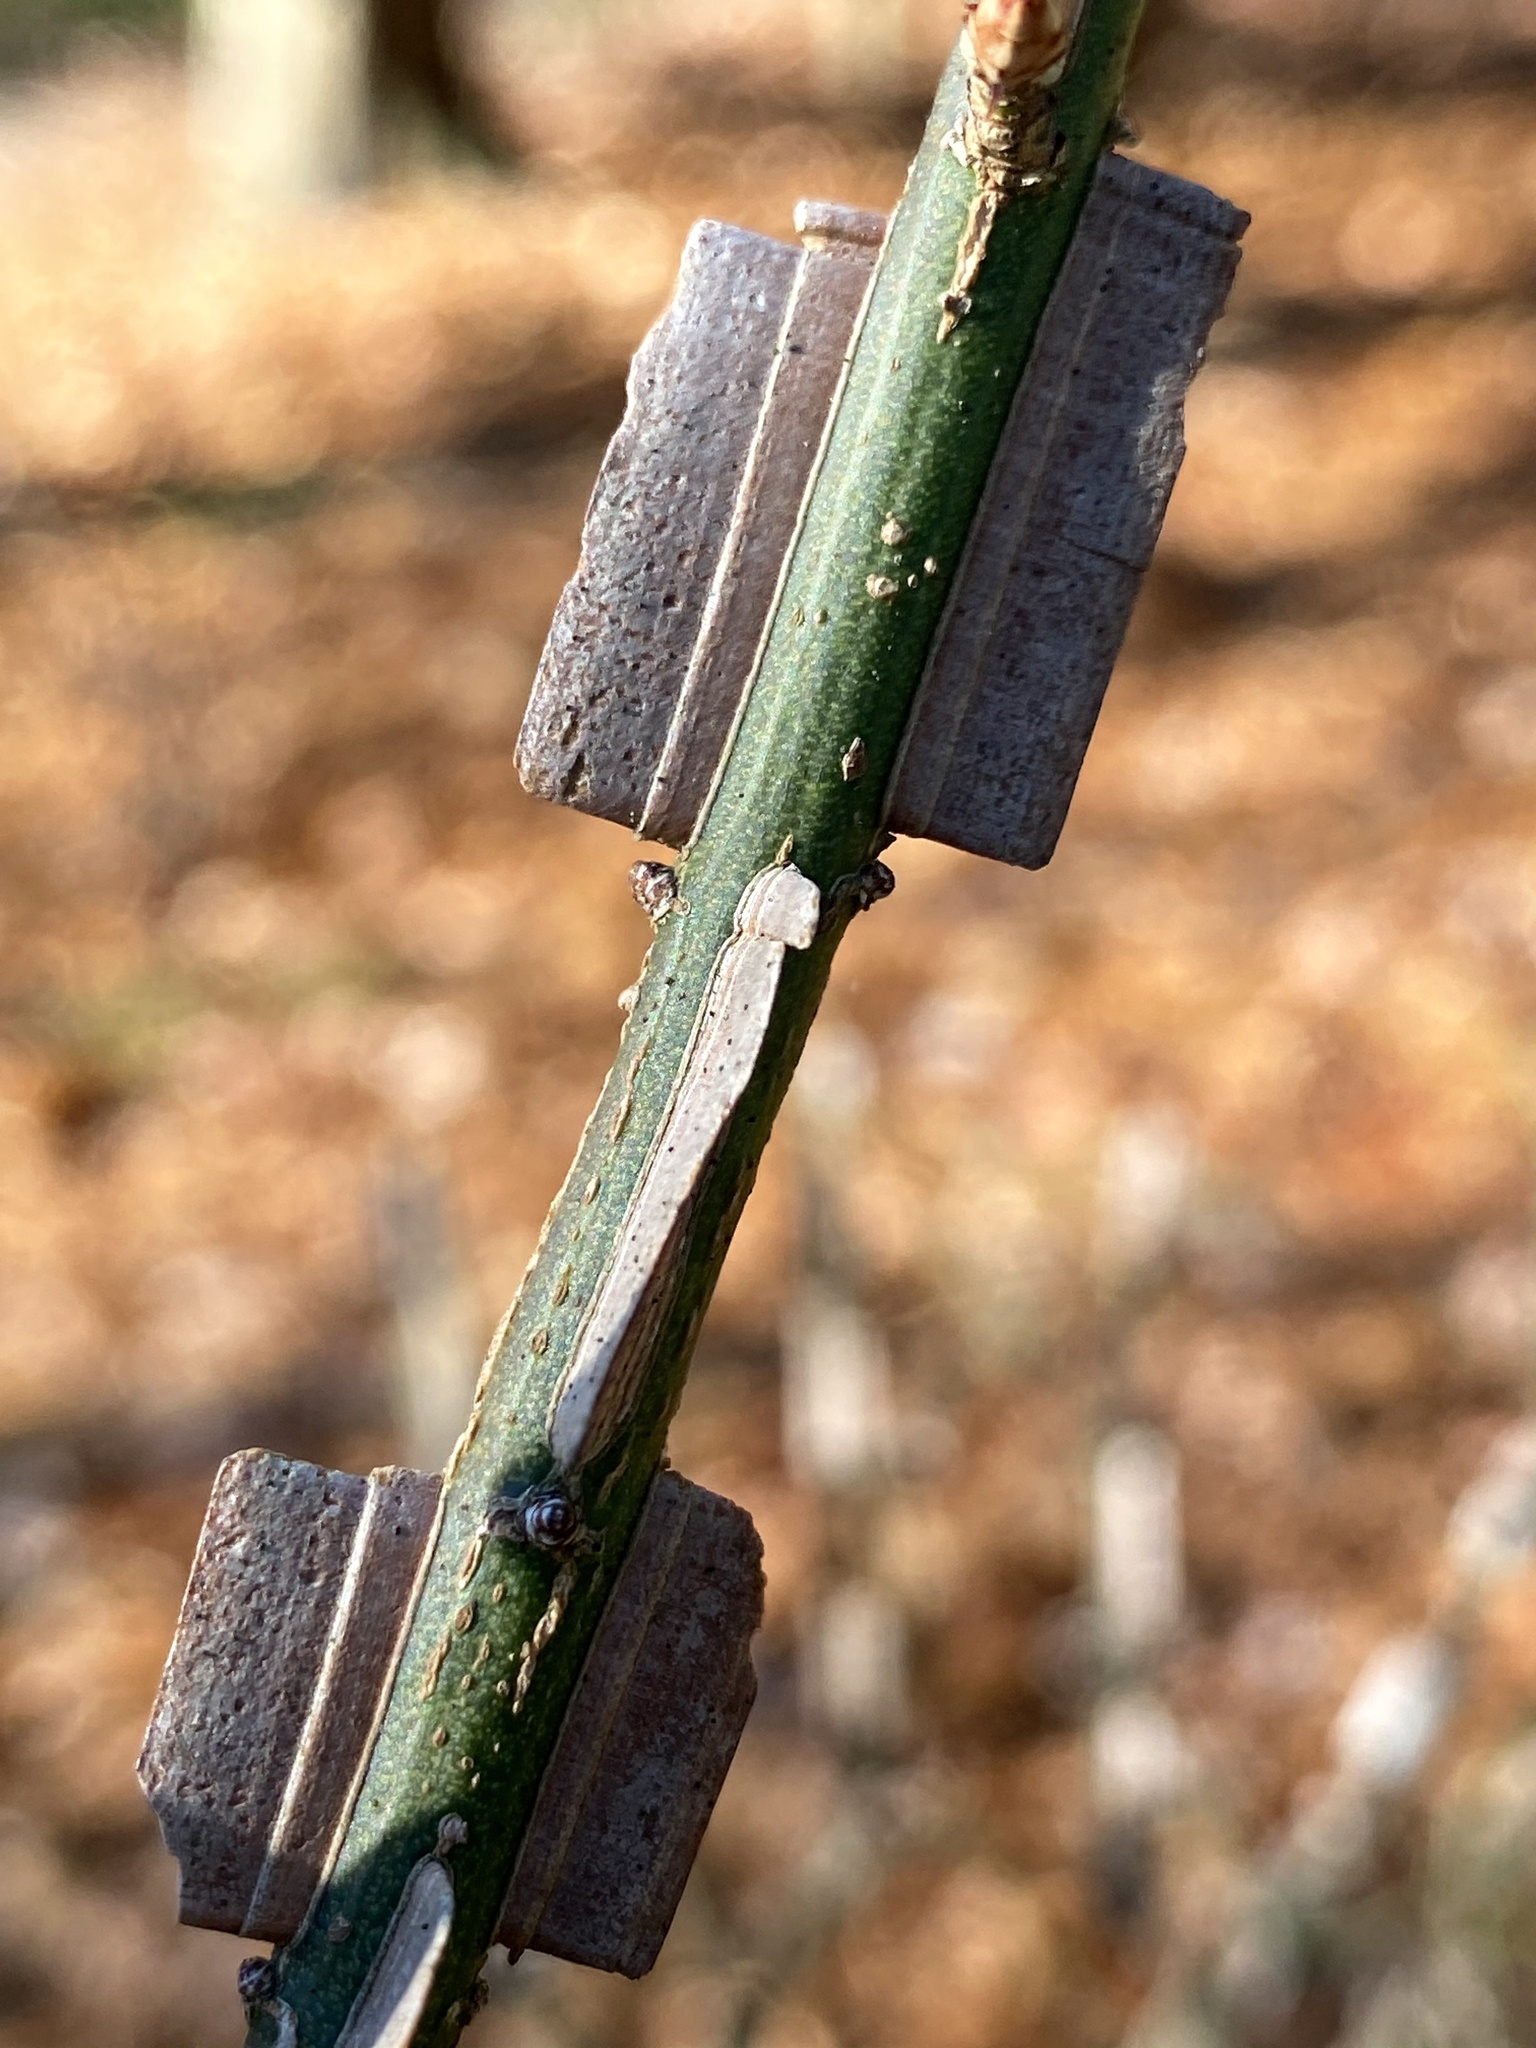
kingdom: Plantae
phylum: Tracheophyta
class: Magnoliopsida
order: Celastrales
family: Celastraceae
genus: Euonymus
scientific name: Euonymus alatus
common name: Winged euonymus
